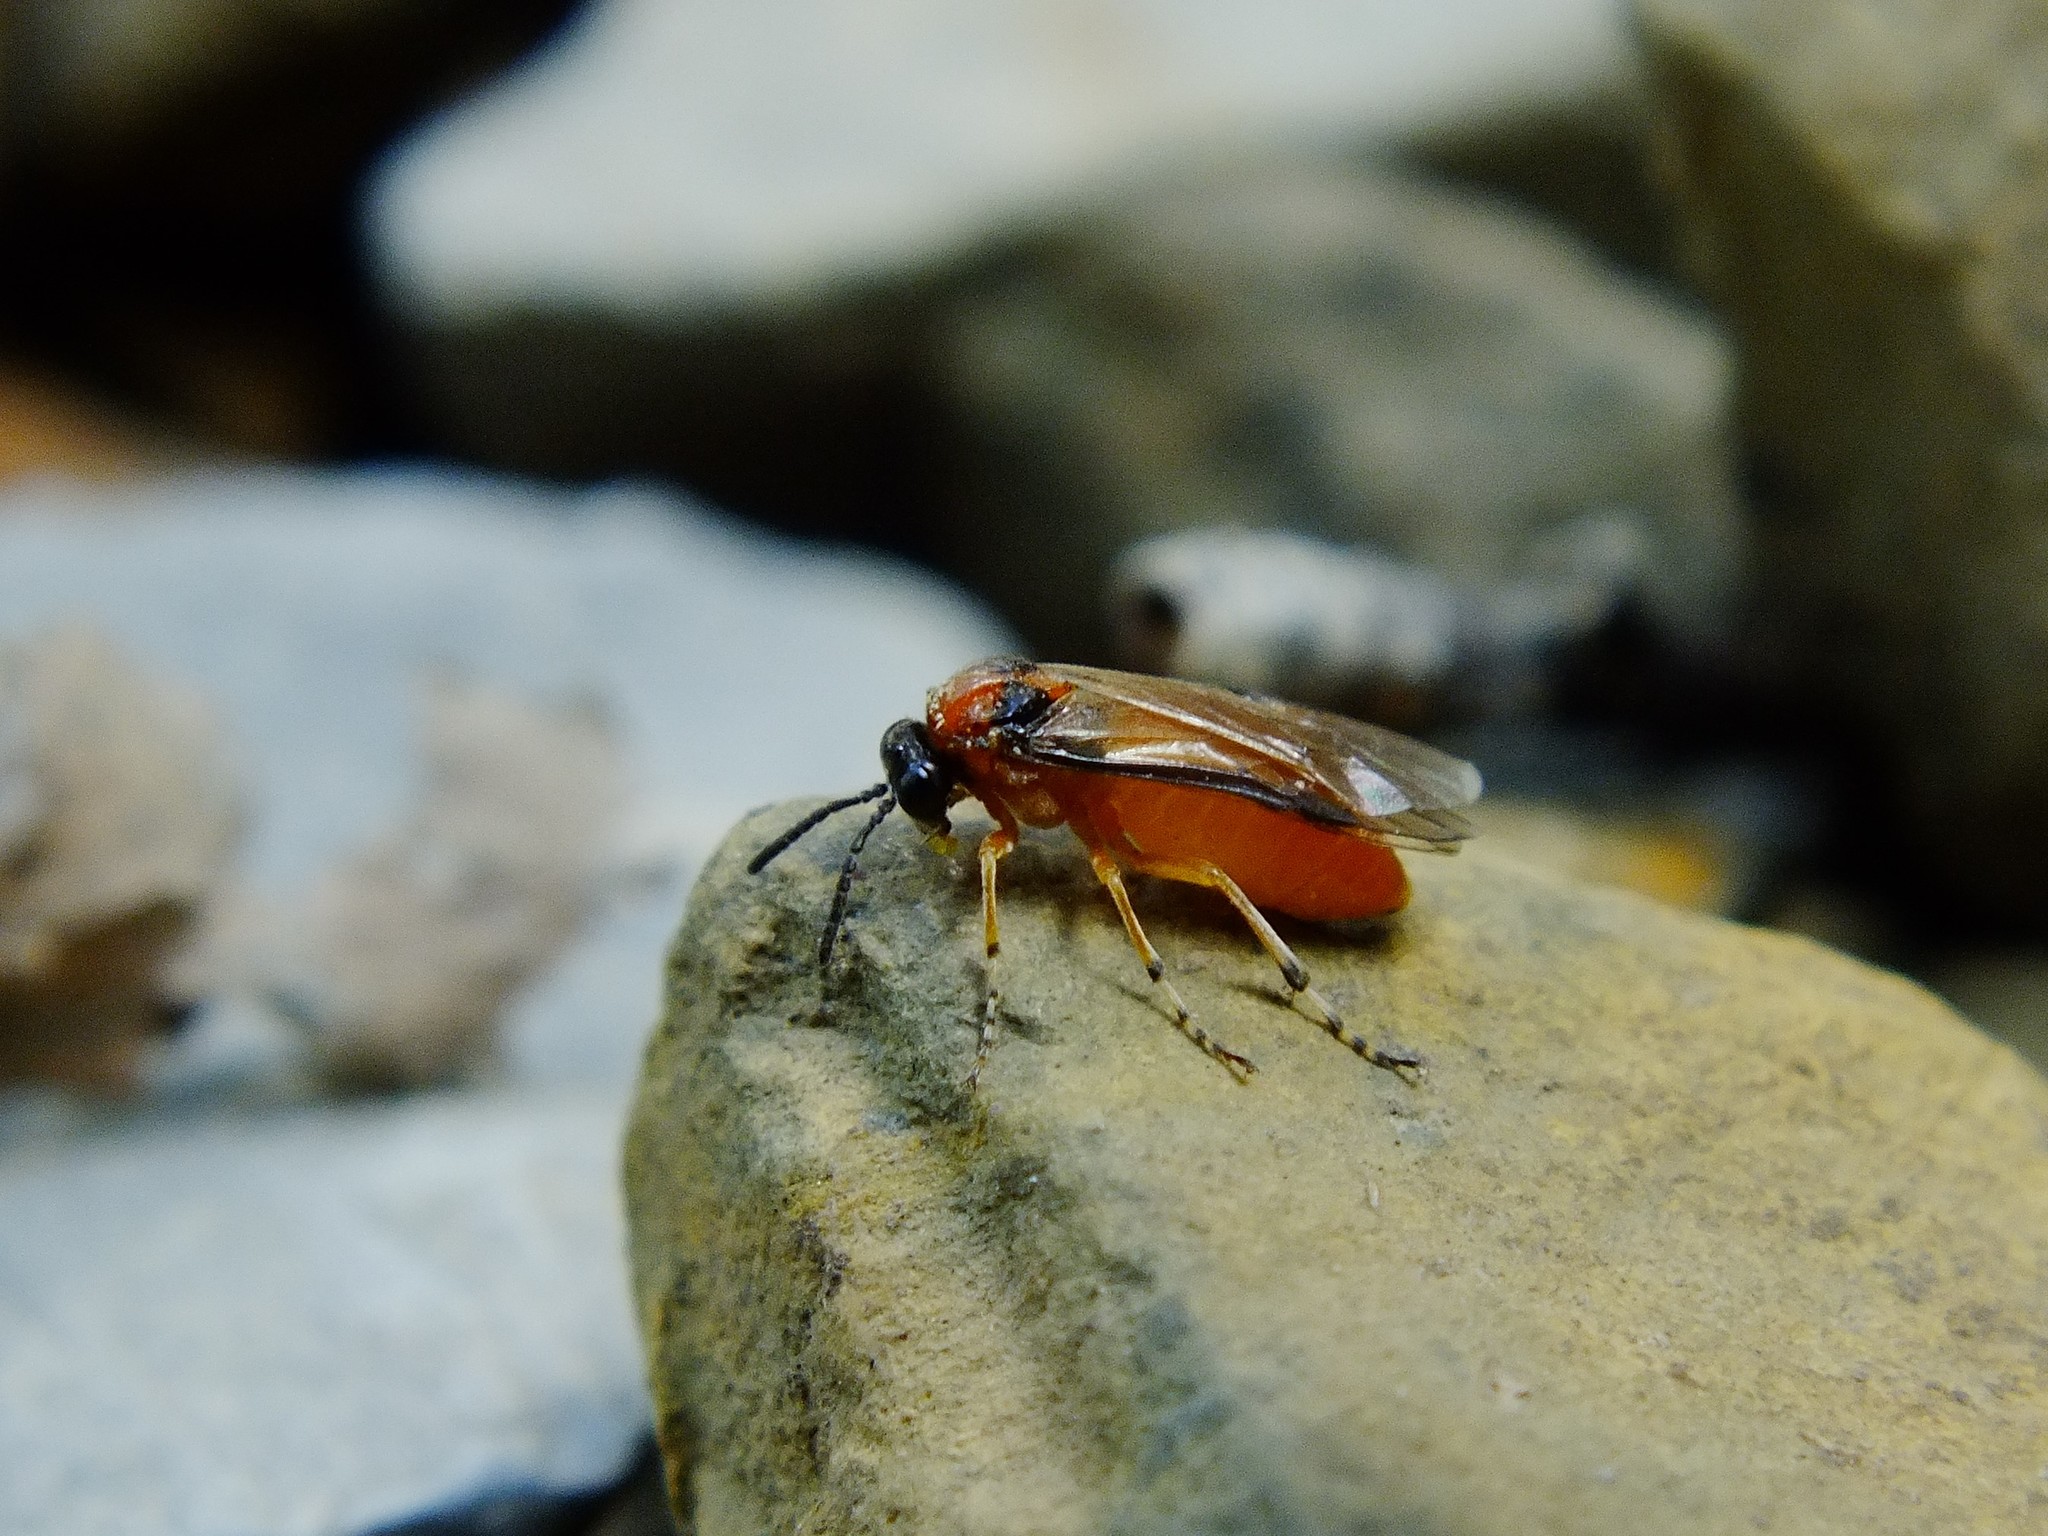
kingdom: Animalia
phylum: Arthropoda
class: Insecta
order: Hymenoptera
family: Tenthredinidae
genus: Athalia
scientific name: Athalia rosae
